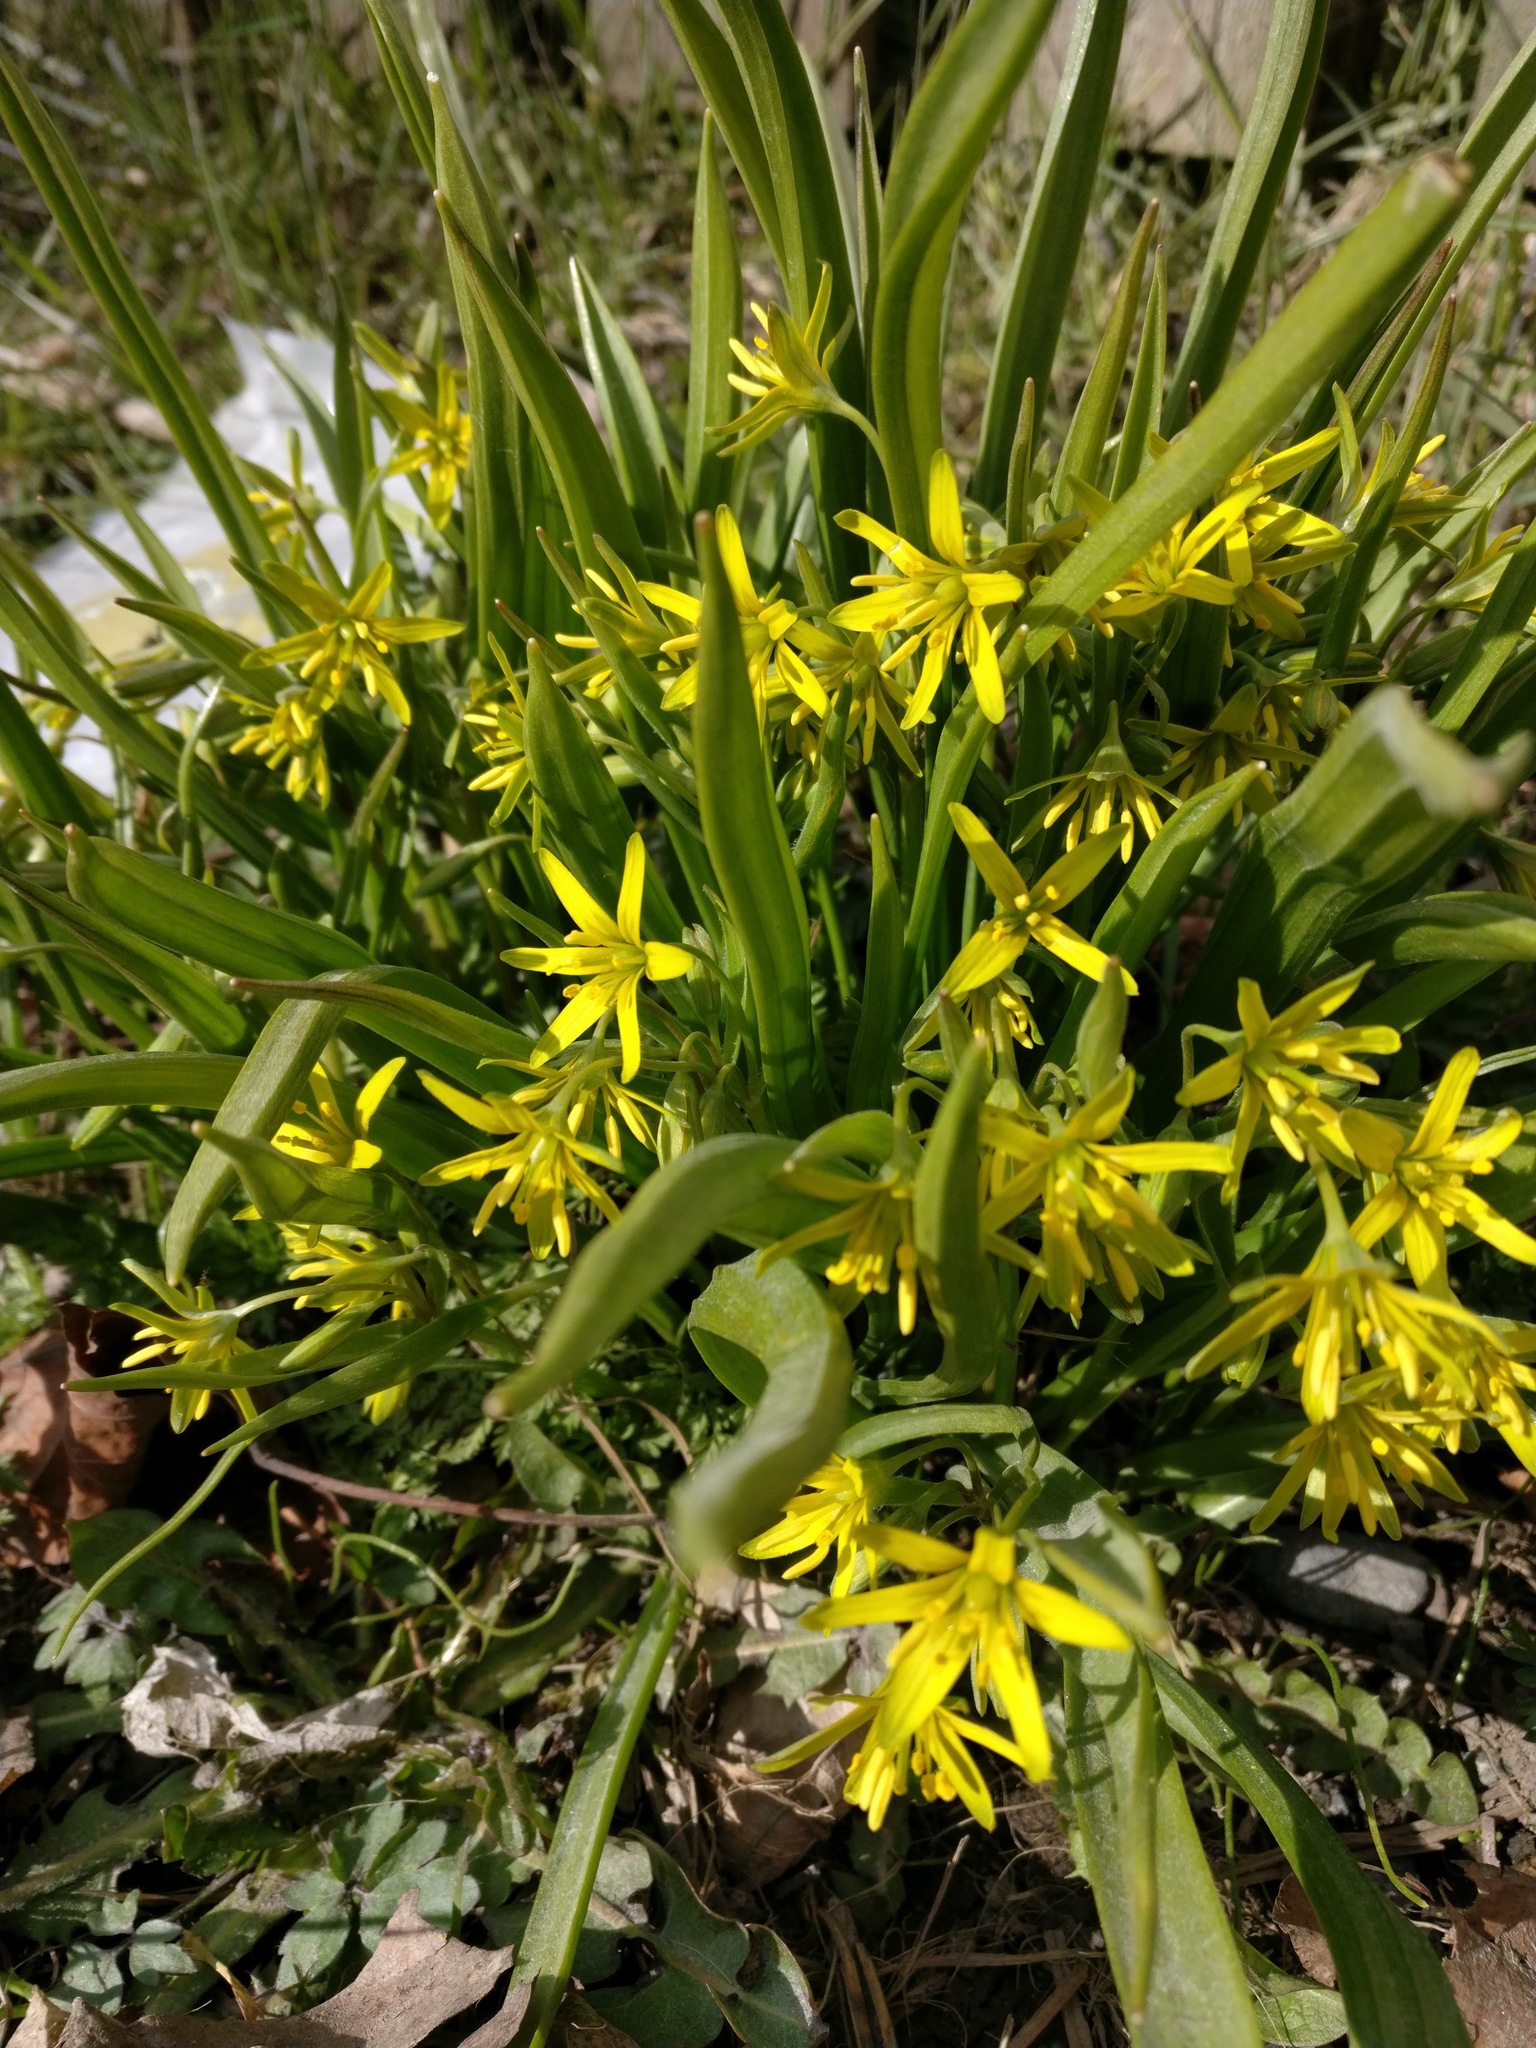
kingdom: Plantae
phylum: Tracheophyta
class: Liliopsida
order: Liliales
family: Liliaceae
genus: Gagea
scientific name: Gagea lutea
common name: Yellow star-of-bethlehem
